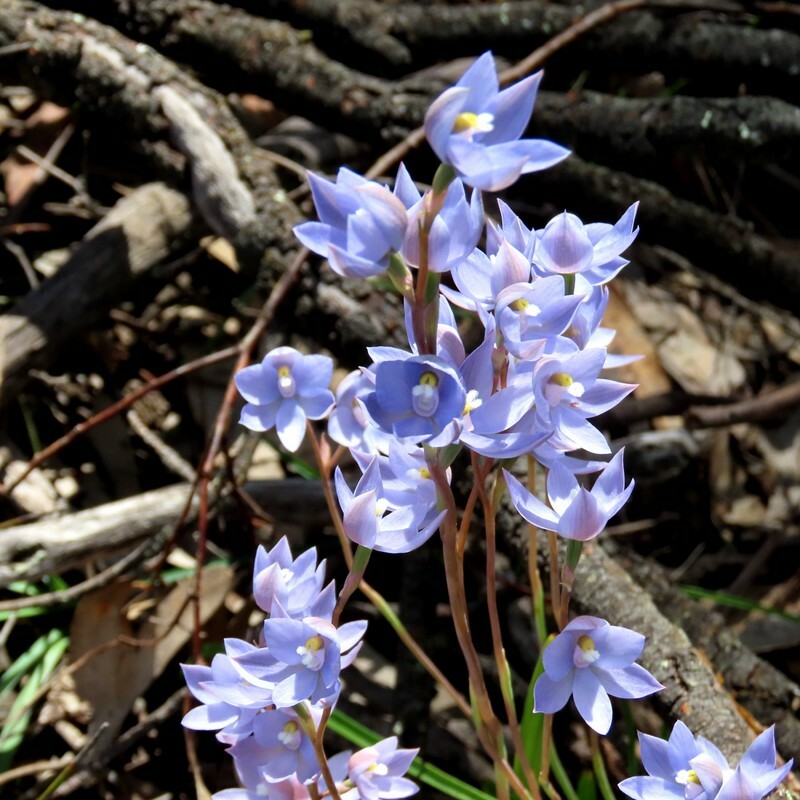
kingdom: Plantae
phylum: Tracheophyta
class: Liliopsida
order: Asparagales
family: Orchidaceae
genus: Thelymitra
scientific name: Thelymitra megcalyptra
